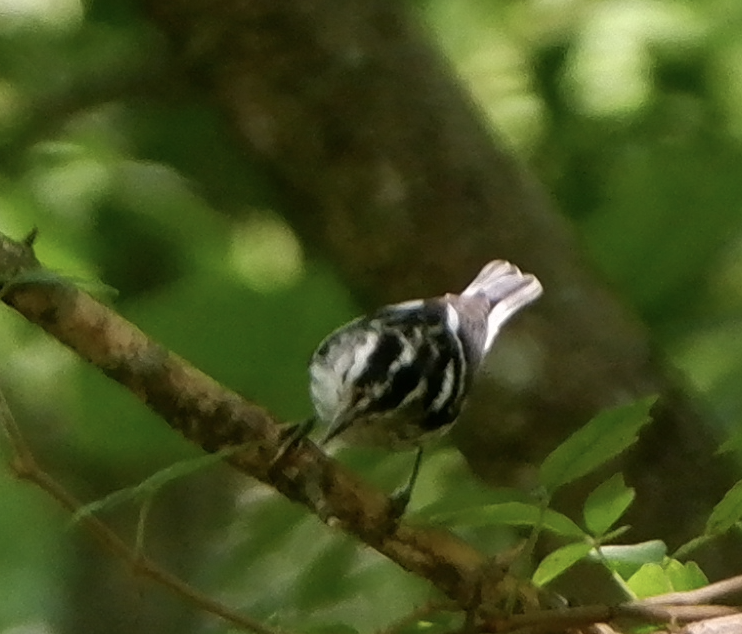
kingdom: Animalia
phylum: Chordata
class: Aves
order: Passeriformes
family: Parulidae
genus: Mniotilta
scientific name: Mniotilta varia
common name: Black-and-white warbler
